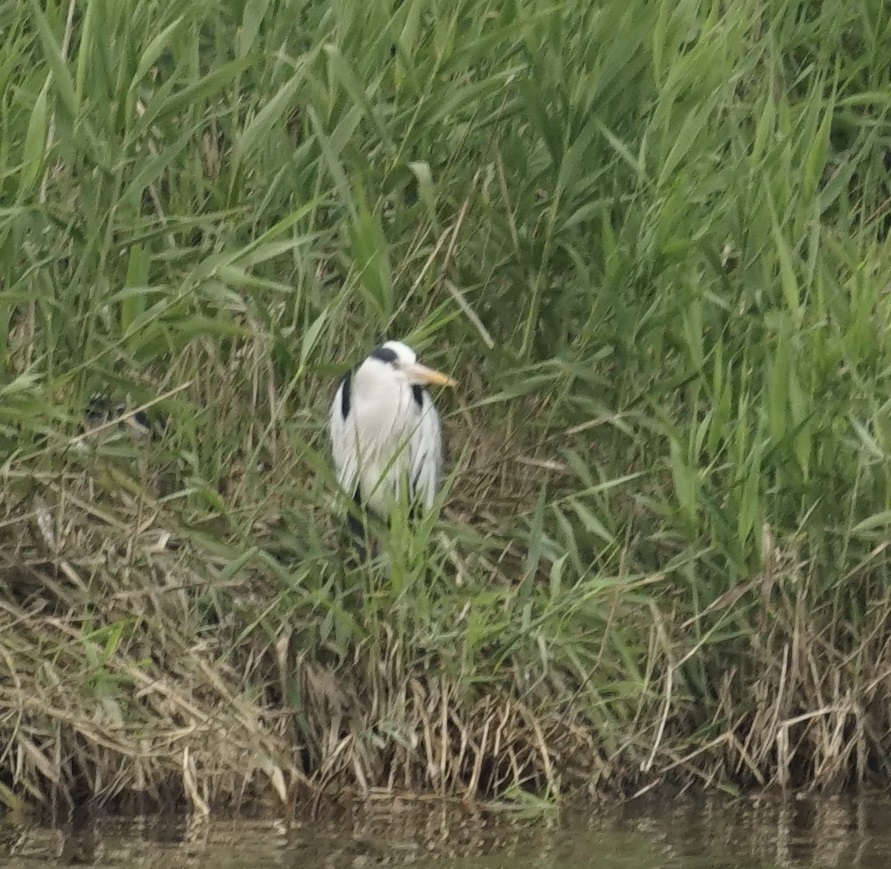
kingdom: Animalia
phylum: Chordata
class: Aves
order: Pelecaniformes
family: Ardeidae
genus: Ardea
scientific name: Ardea cinerea
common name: Grey heron
